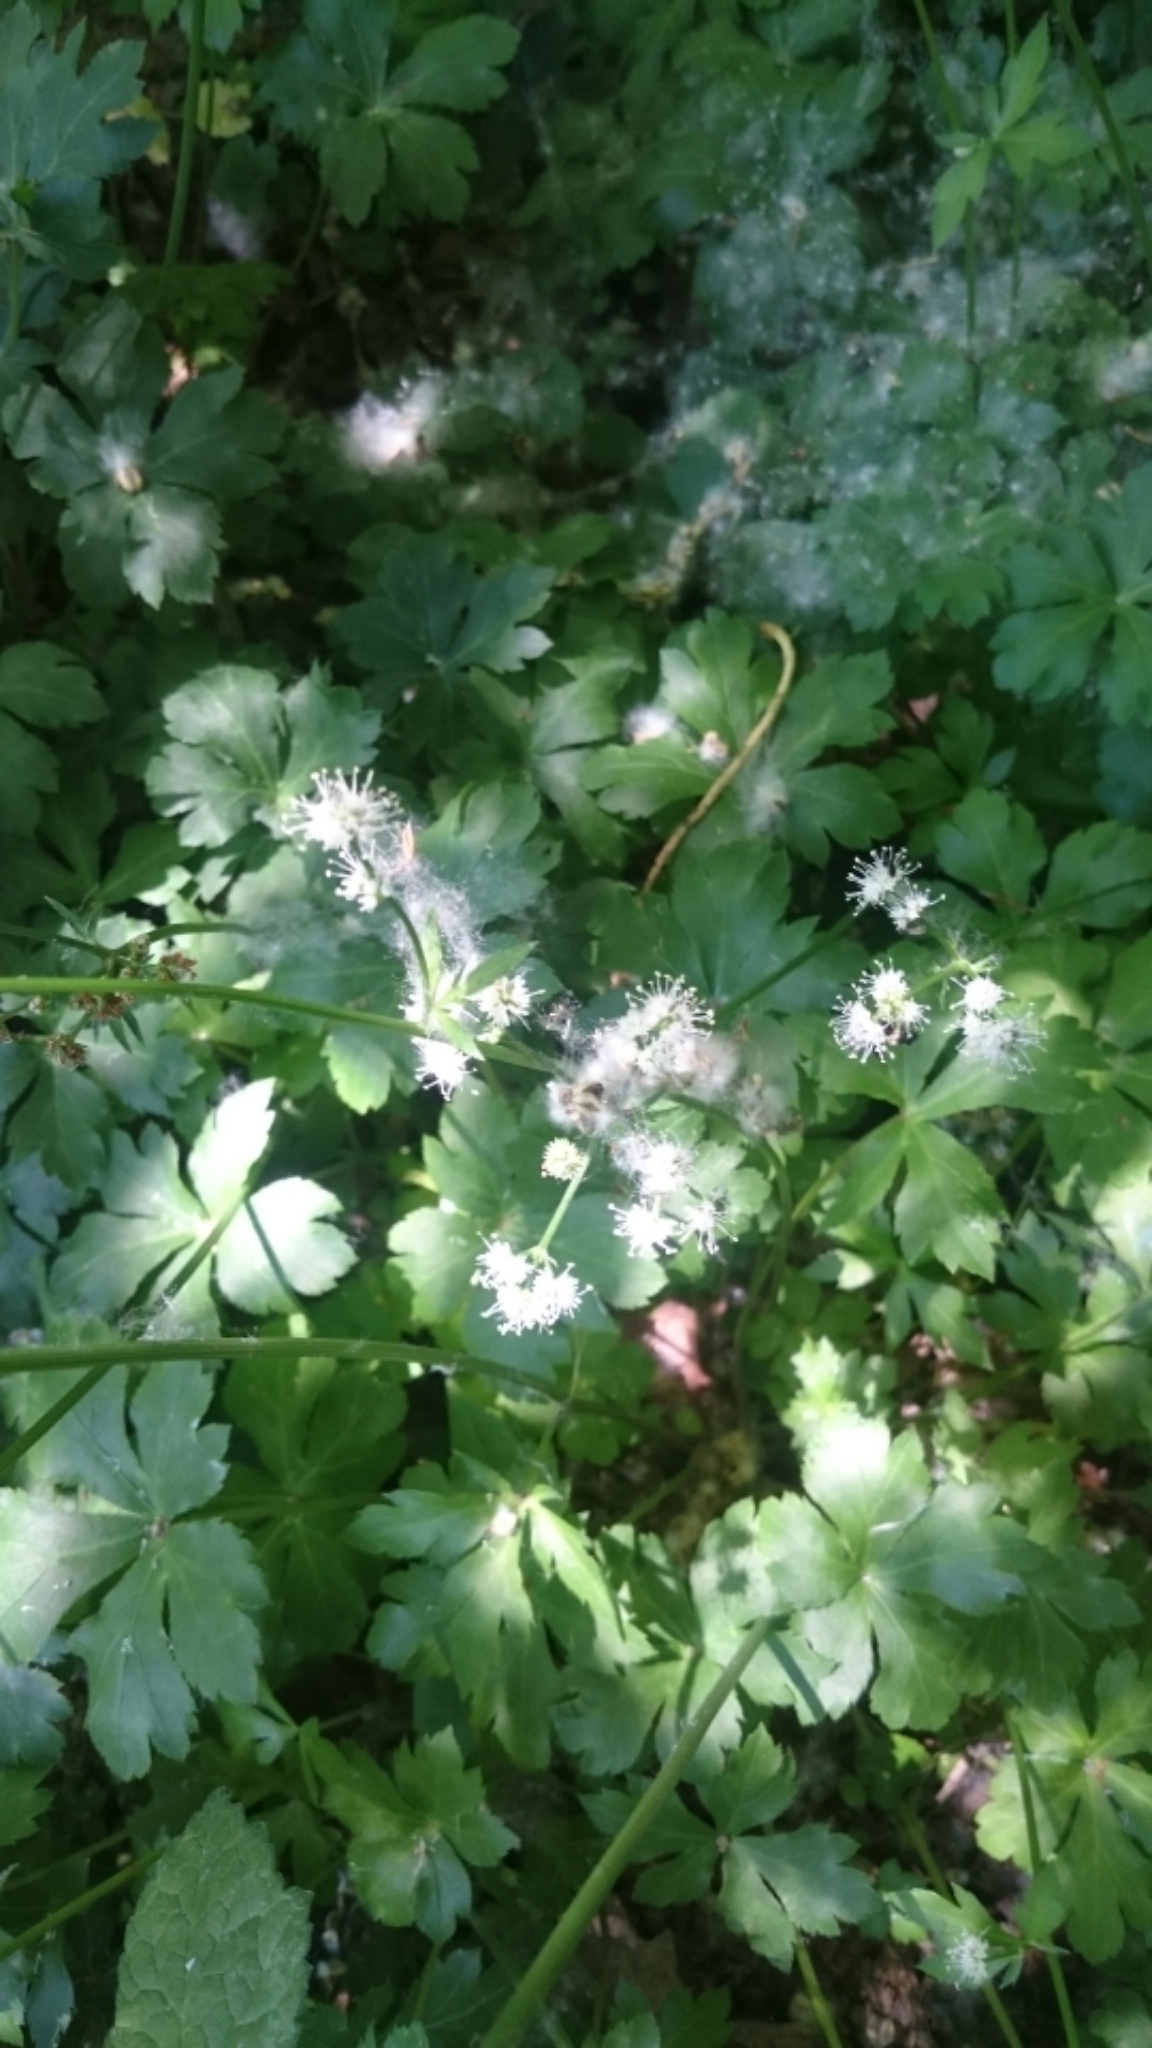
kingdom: Plantae
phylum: Tracheophyta
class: Magnoliopsida
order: Apiales
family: Apiaceae
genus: Sanicula
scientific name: Sanicula europaea
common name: Sanicle
